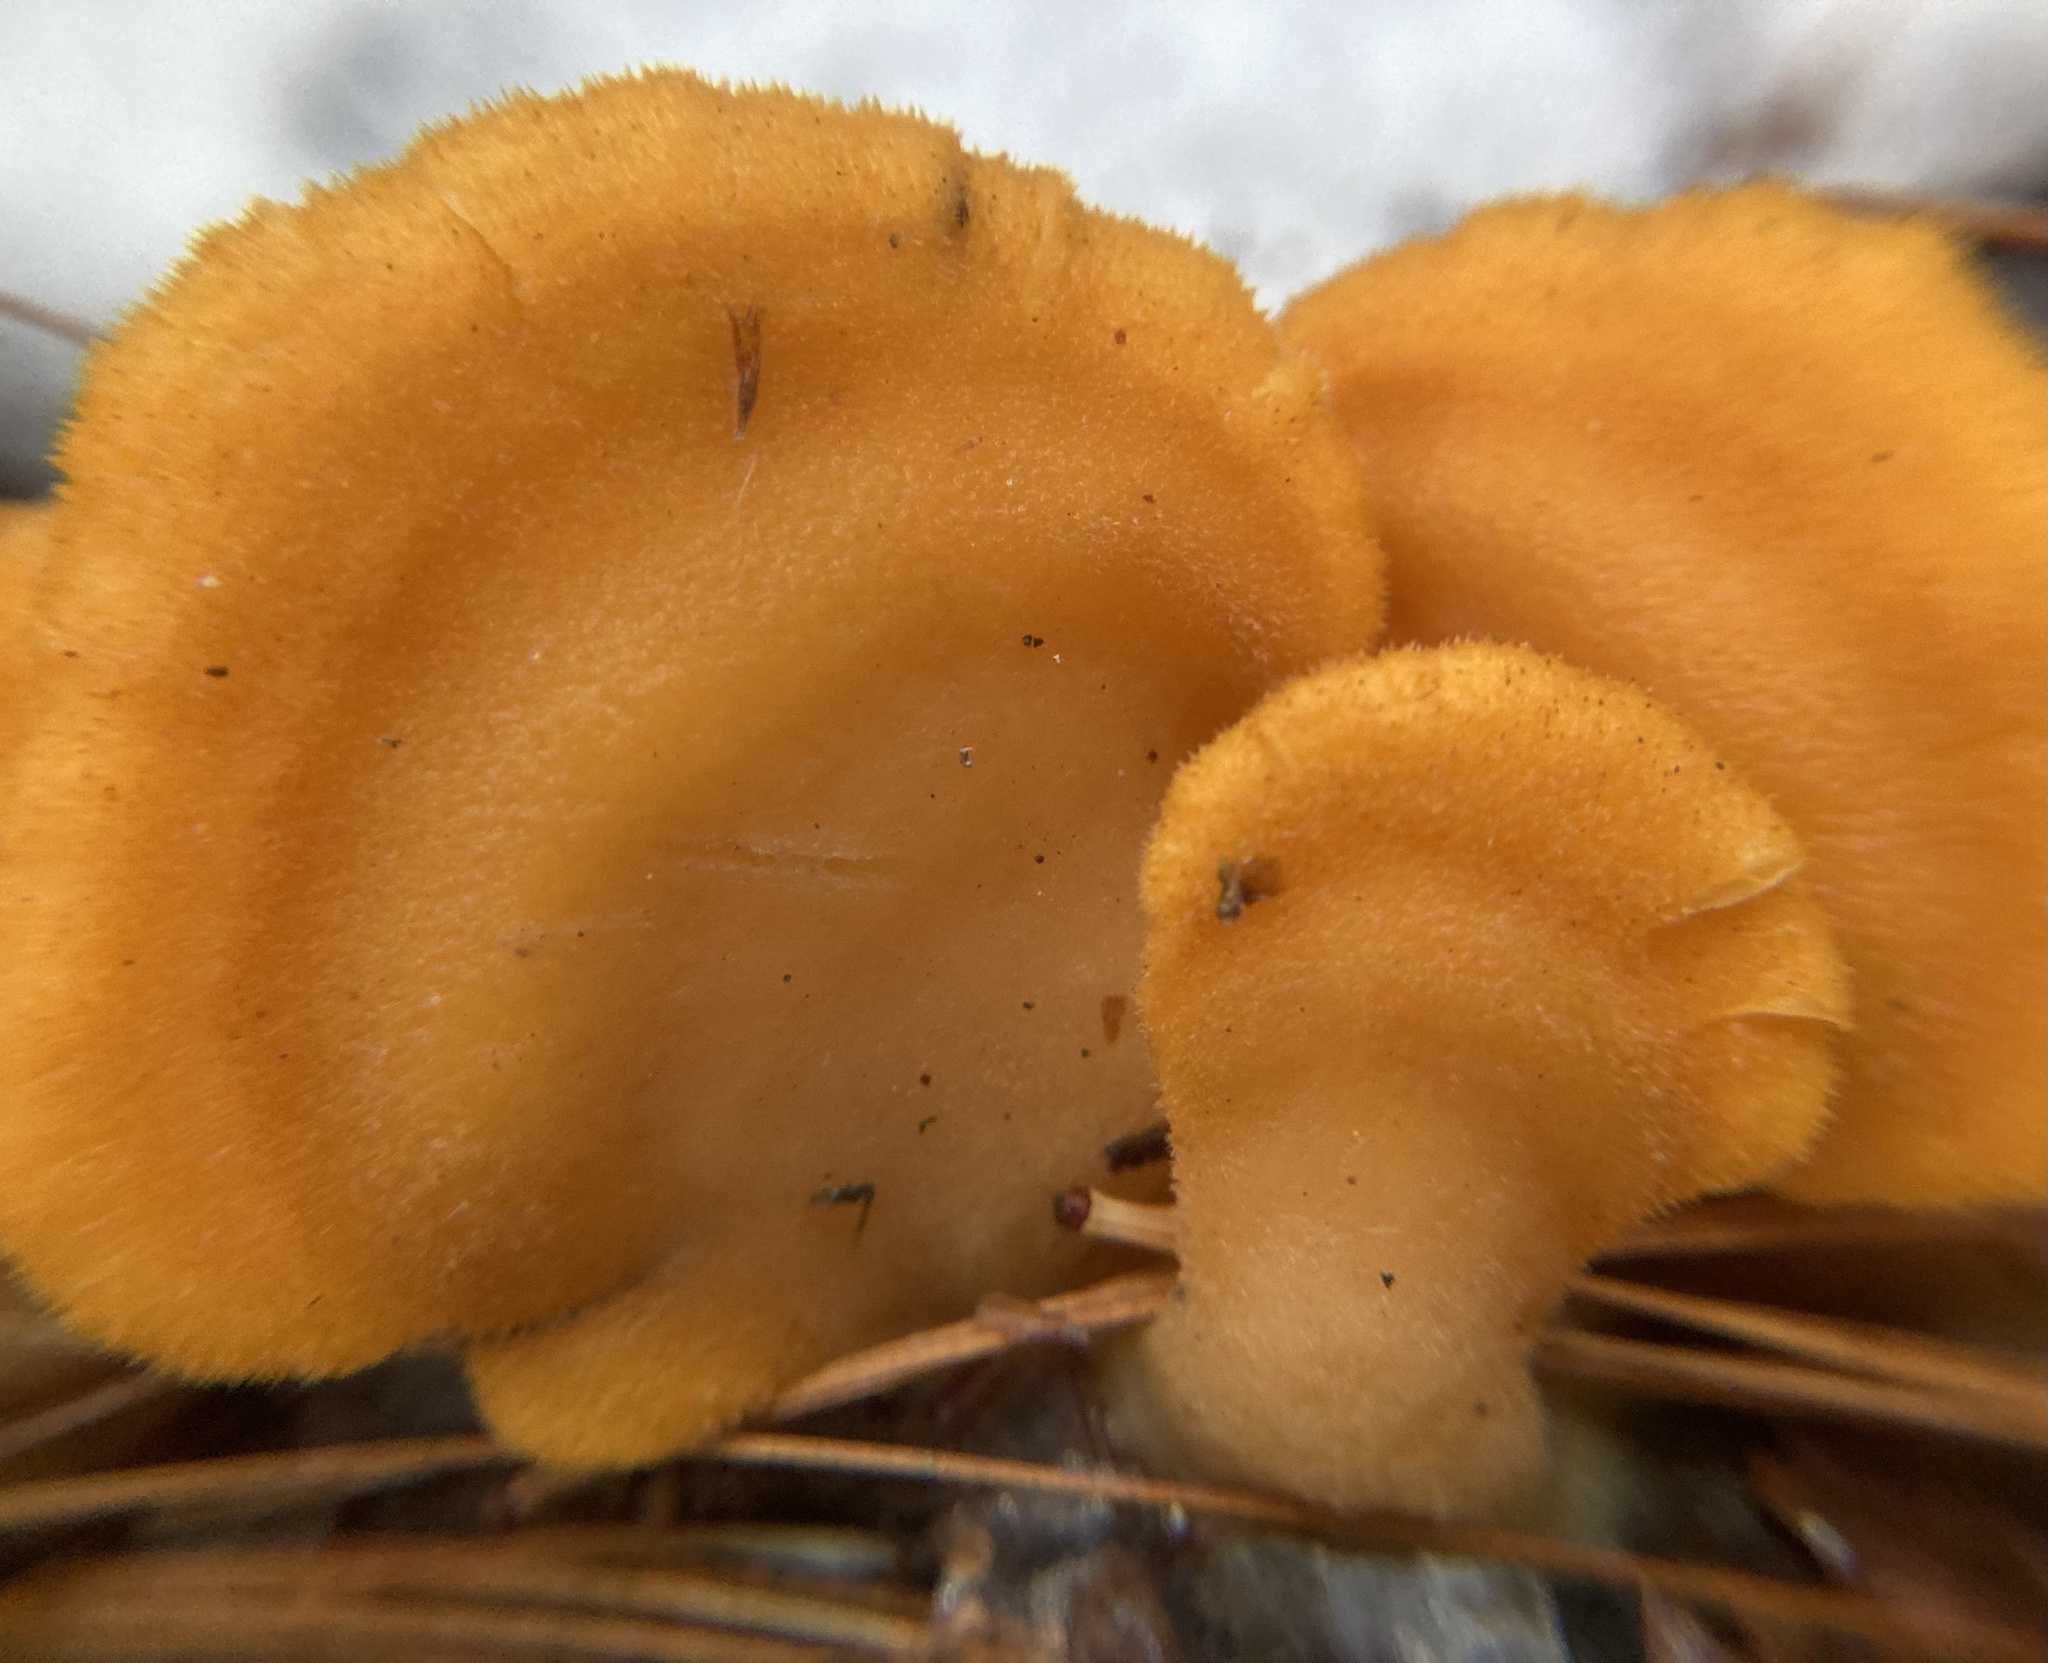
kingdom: Fungi
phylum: Basidiomycota
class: Agaricomycetes
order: Agaricales
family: Phyllotopsidaceae
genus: Phyllotopsis
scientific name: Phyllotopsis nidulans
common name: Orange mock oyster
